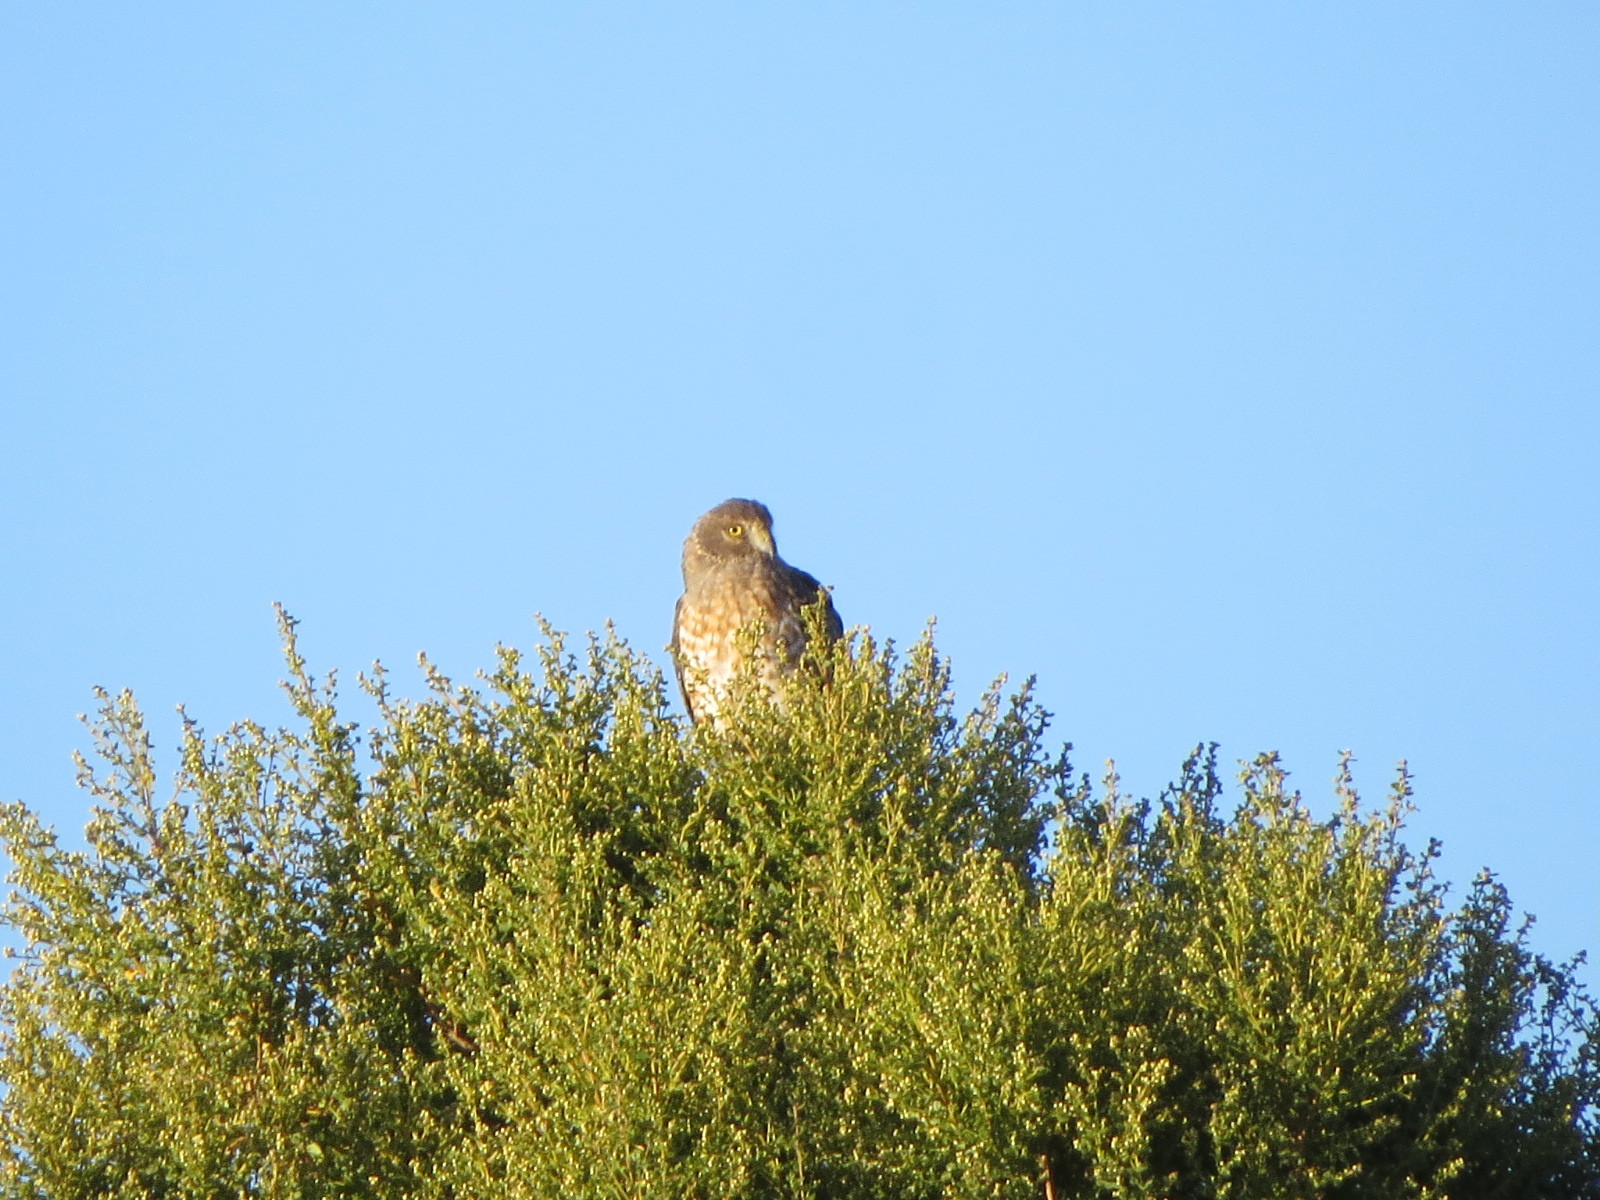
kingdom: Animalia
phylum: Chordata
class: Aves
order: Accipitriformes
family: Accipitridae
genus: Circus
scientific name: Circus cyaneus
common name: Hen harrier
